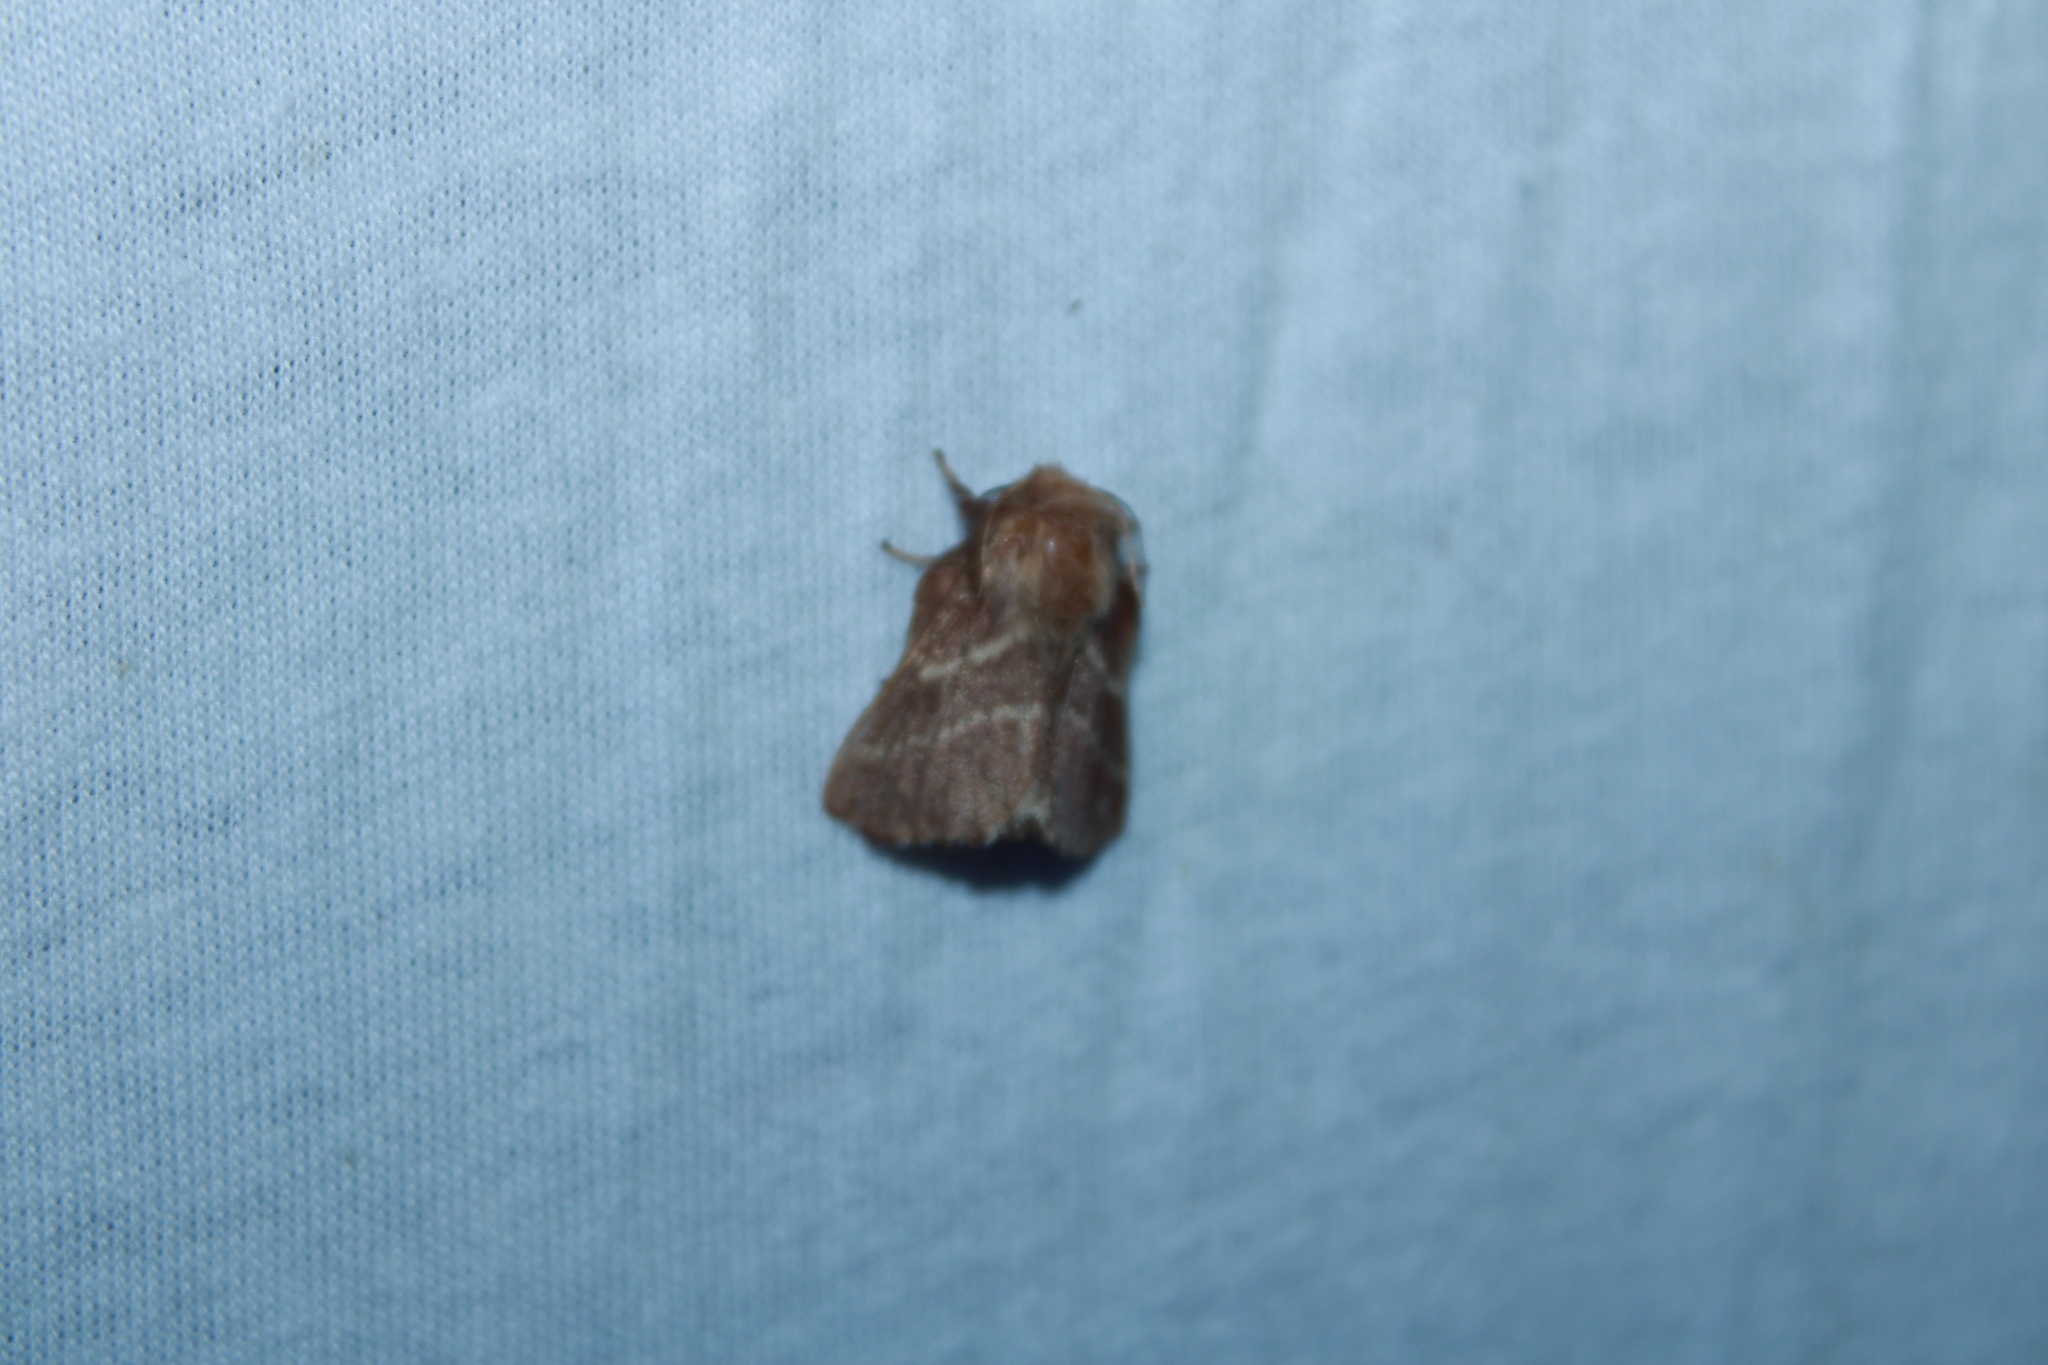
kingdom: Animalia
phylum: Arthropoda
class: Insecta
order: Lepidoptera
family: Lasiocampidae
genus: Malacosoma
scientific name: Malacosoma americana
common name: Eastern tent caterpillar moth
